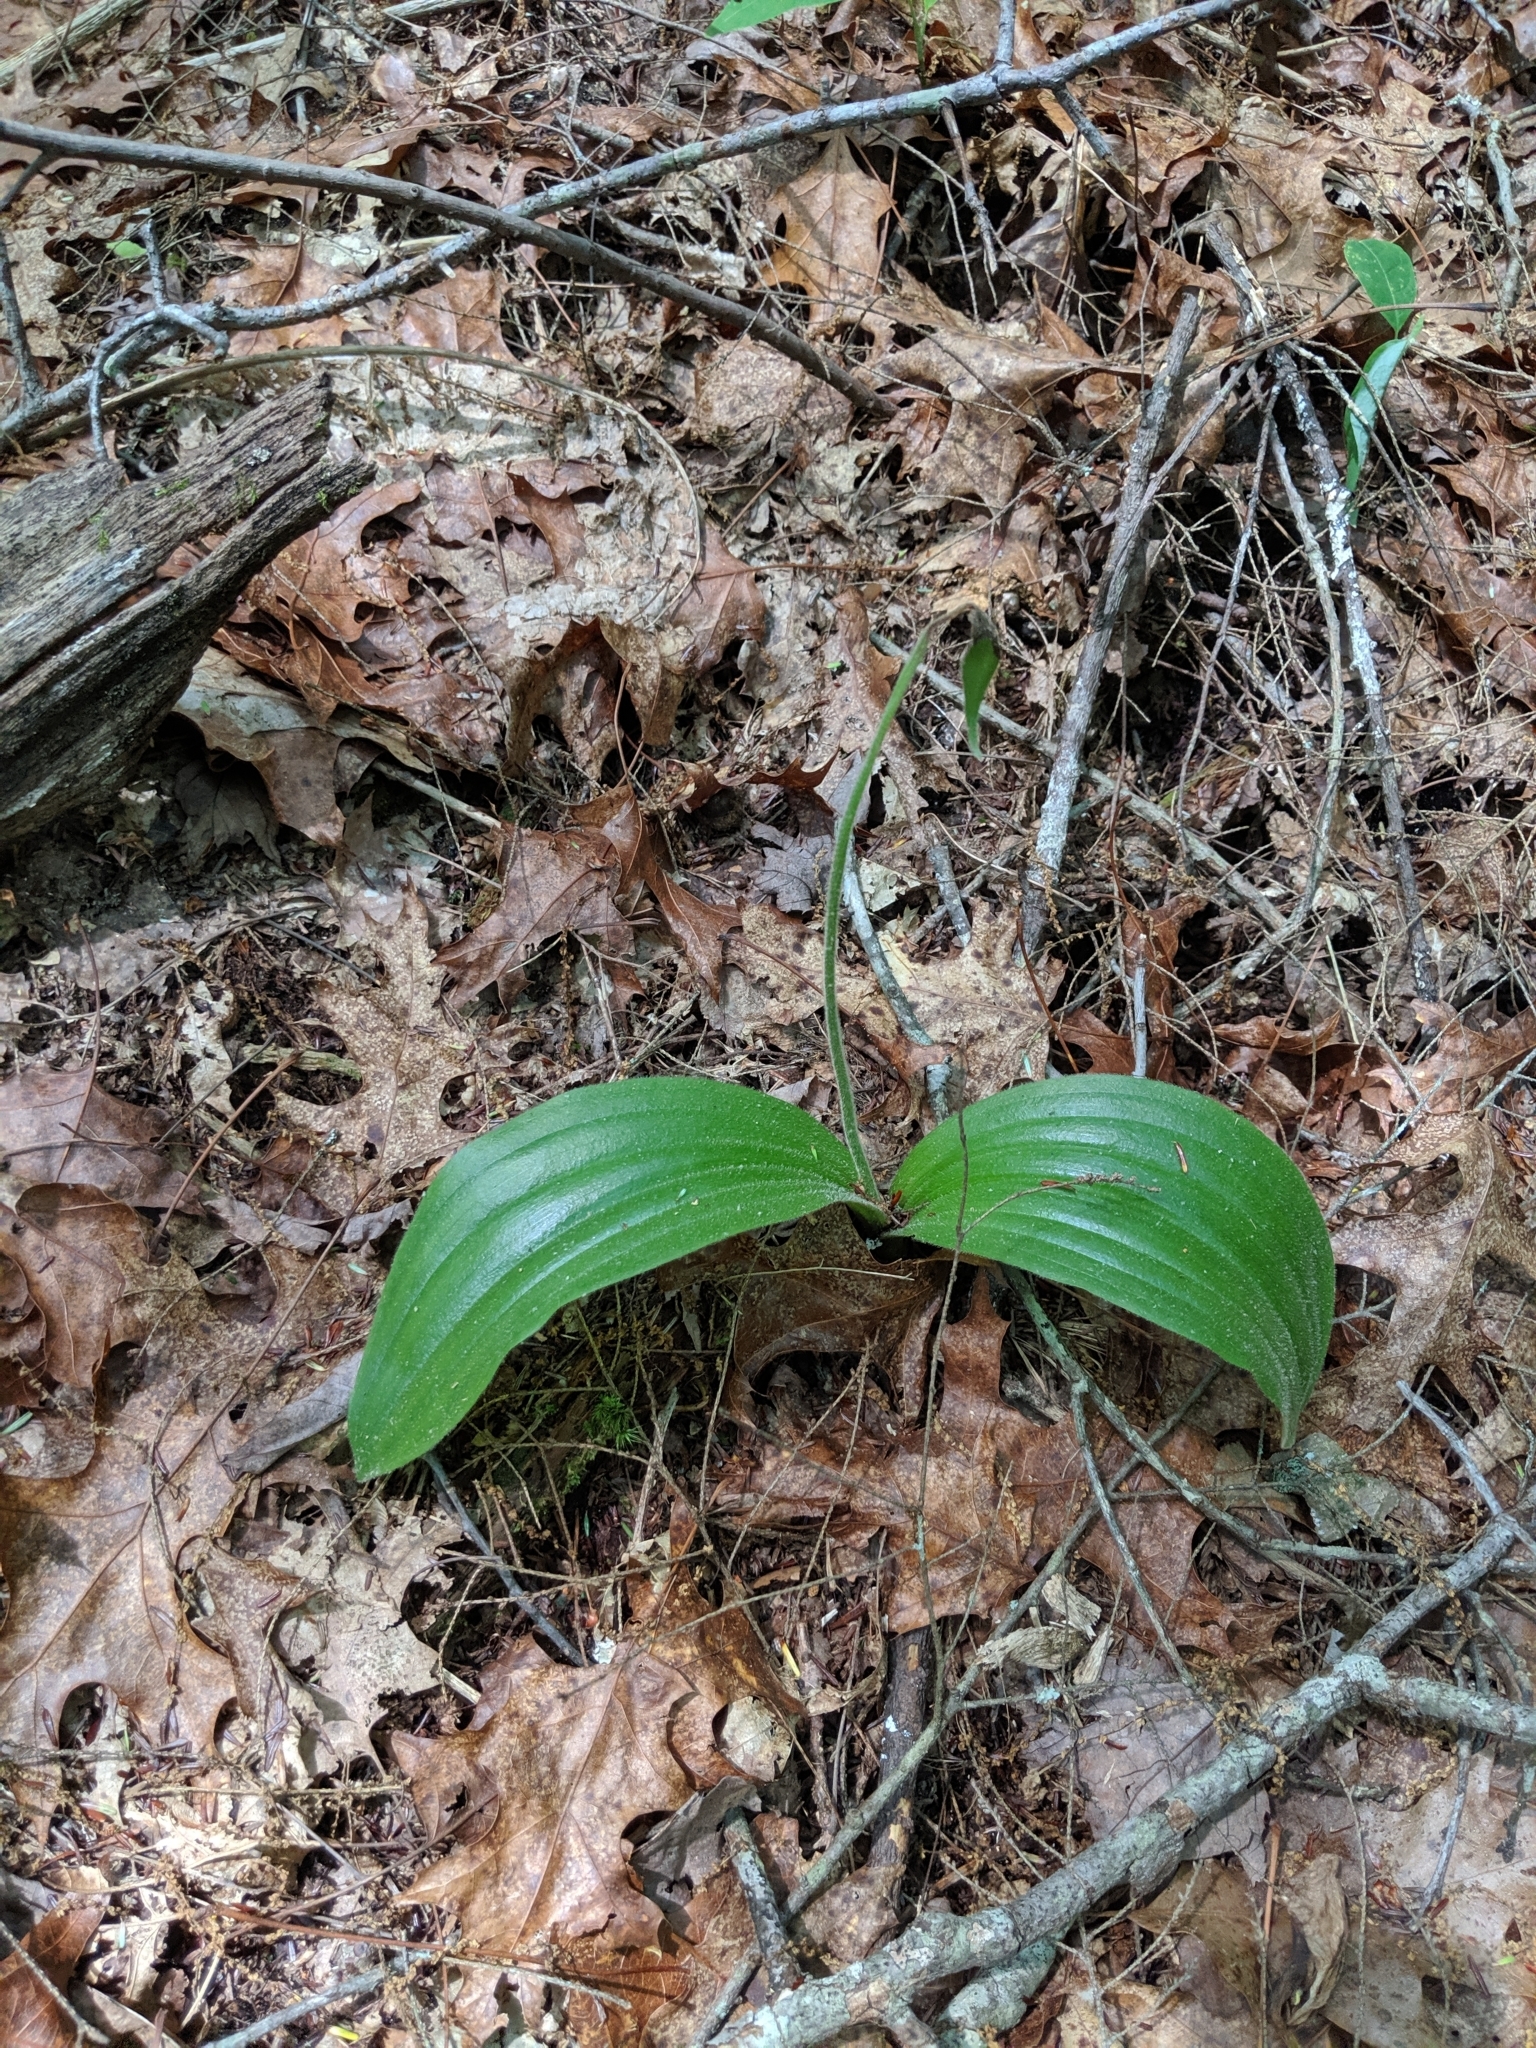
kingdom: Plantae
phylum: Tracheophyta
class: Liliopsida
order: Asparagales
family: Orchidaceae
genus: Cypripedium
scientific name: Cypripedium acaule
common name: Pink lady's-slipper
